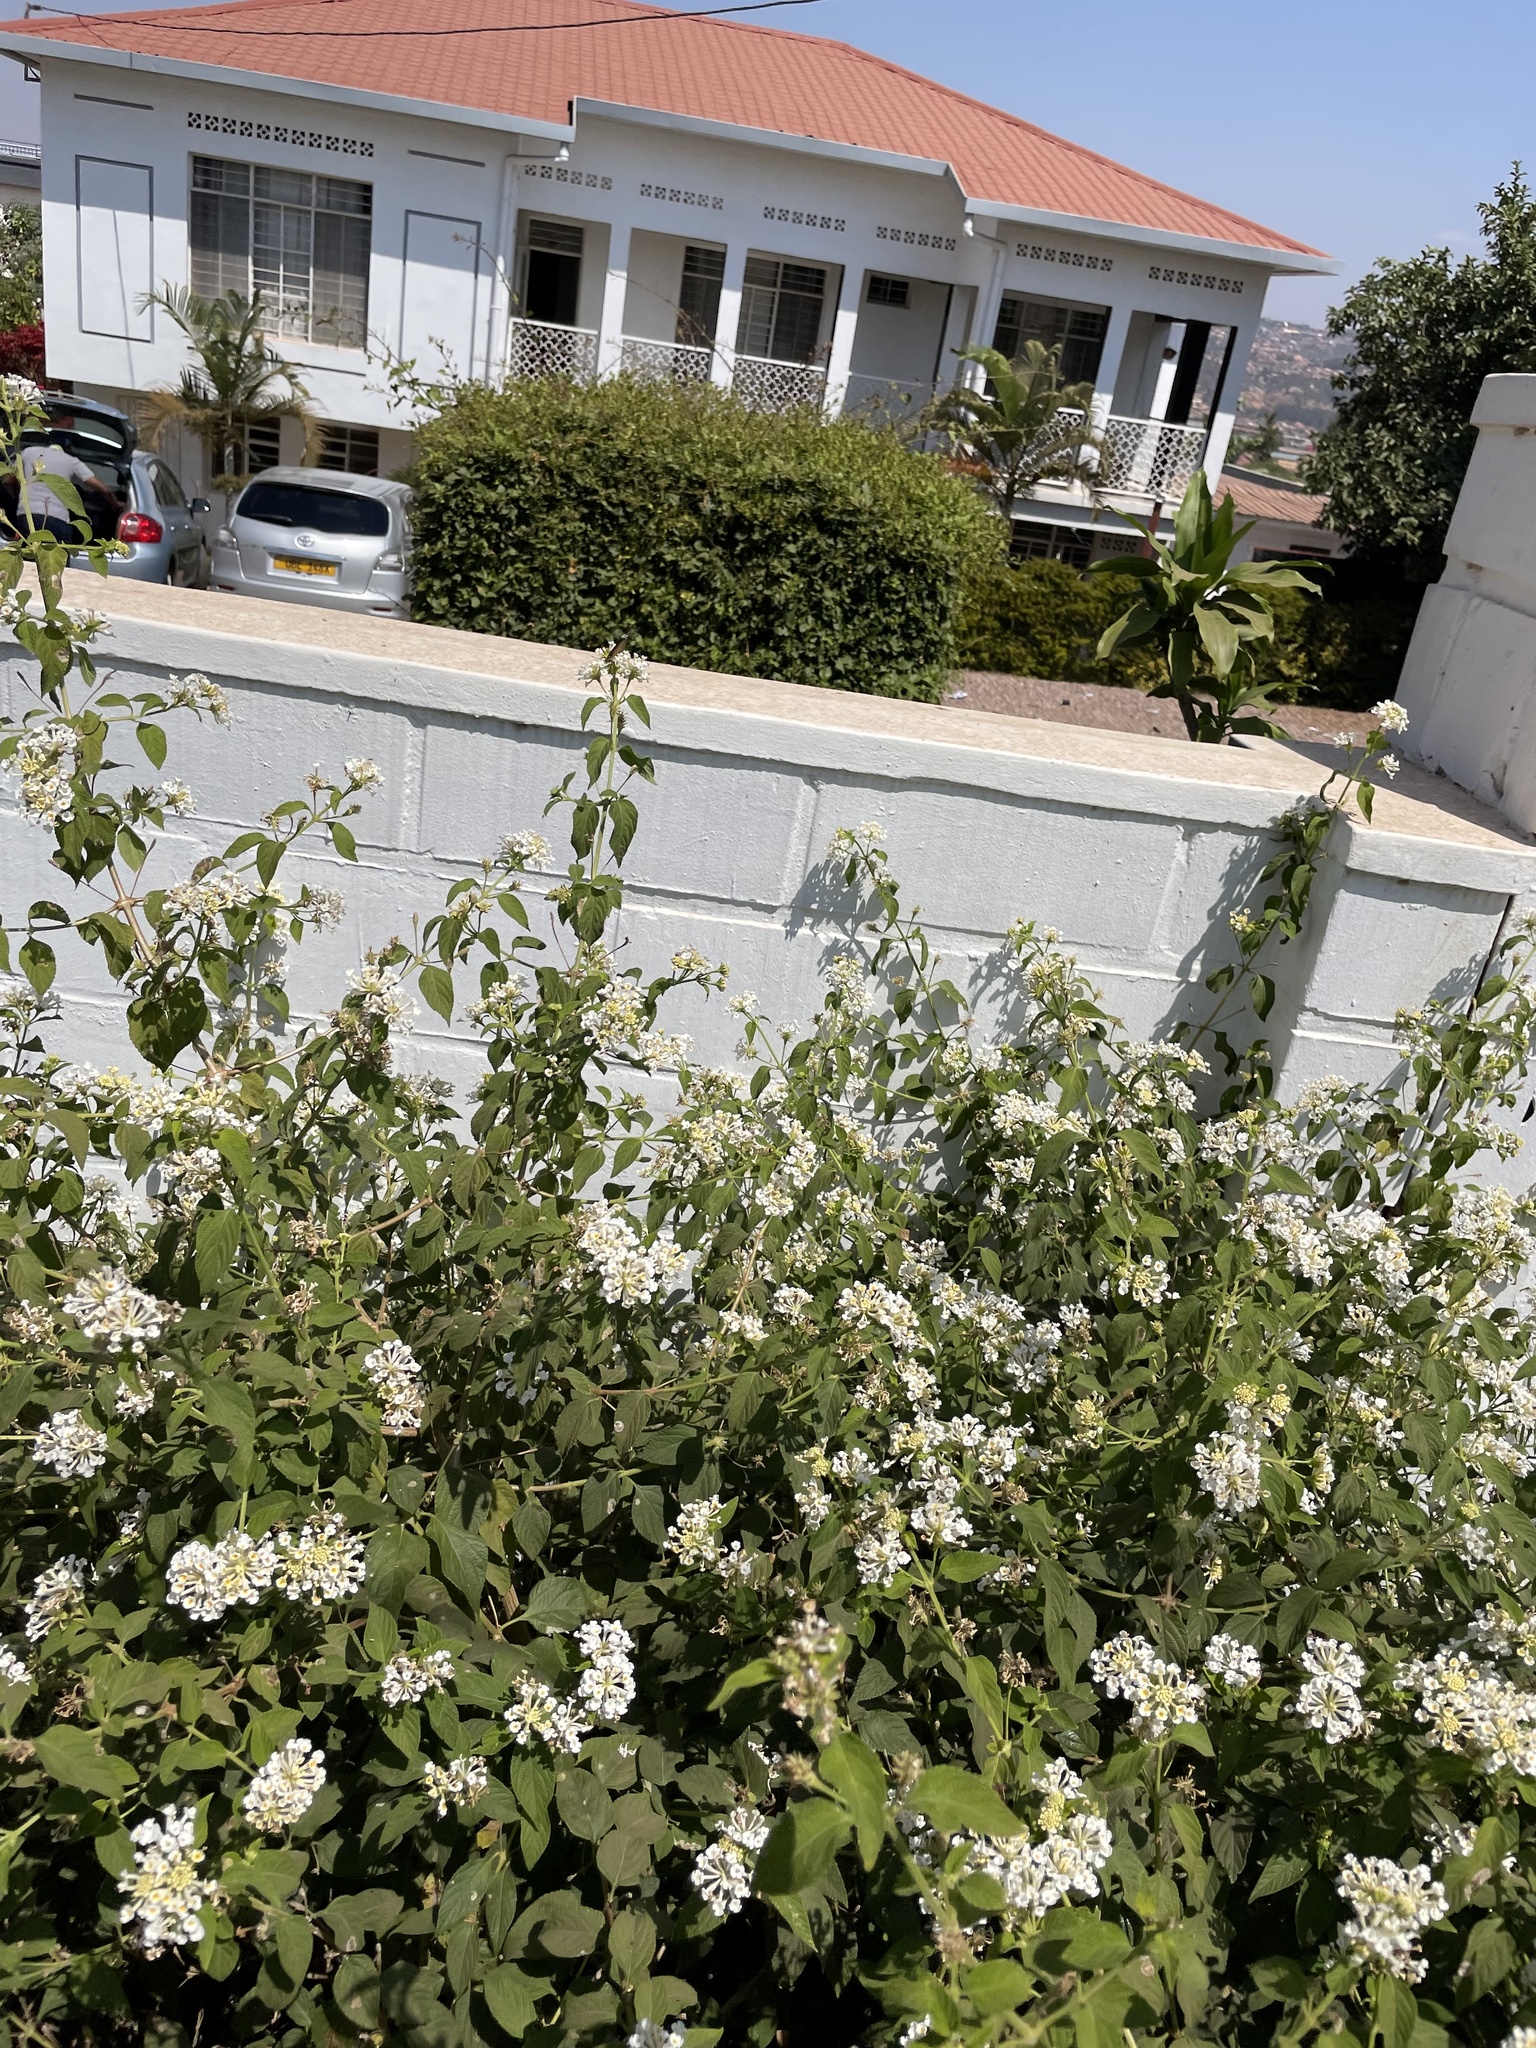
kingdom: Animalia
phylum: Arthropoda
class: Insecta
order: Lepidoptera
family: Nymphalidae
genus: Acraea
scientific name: Acraea Telchinia encedon
